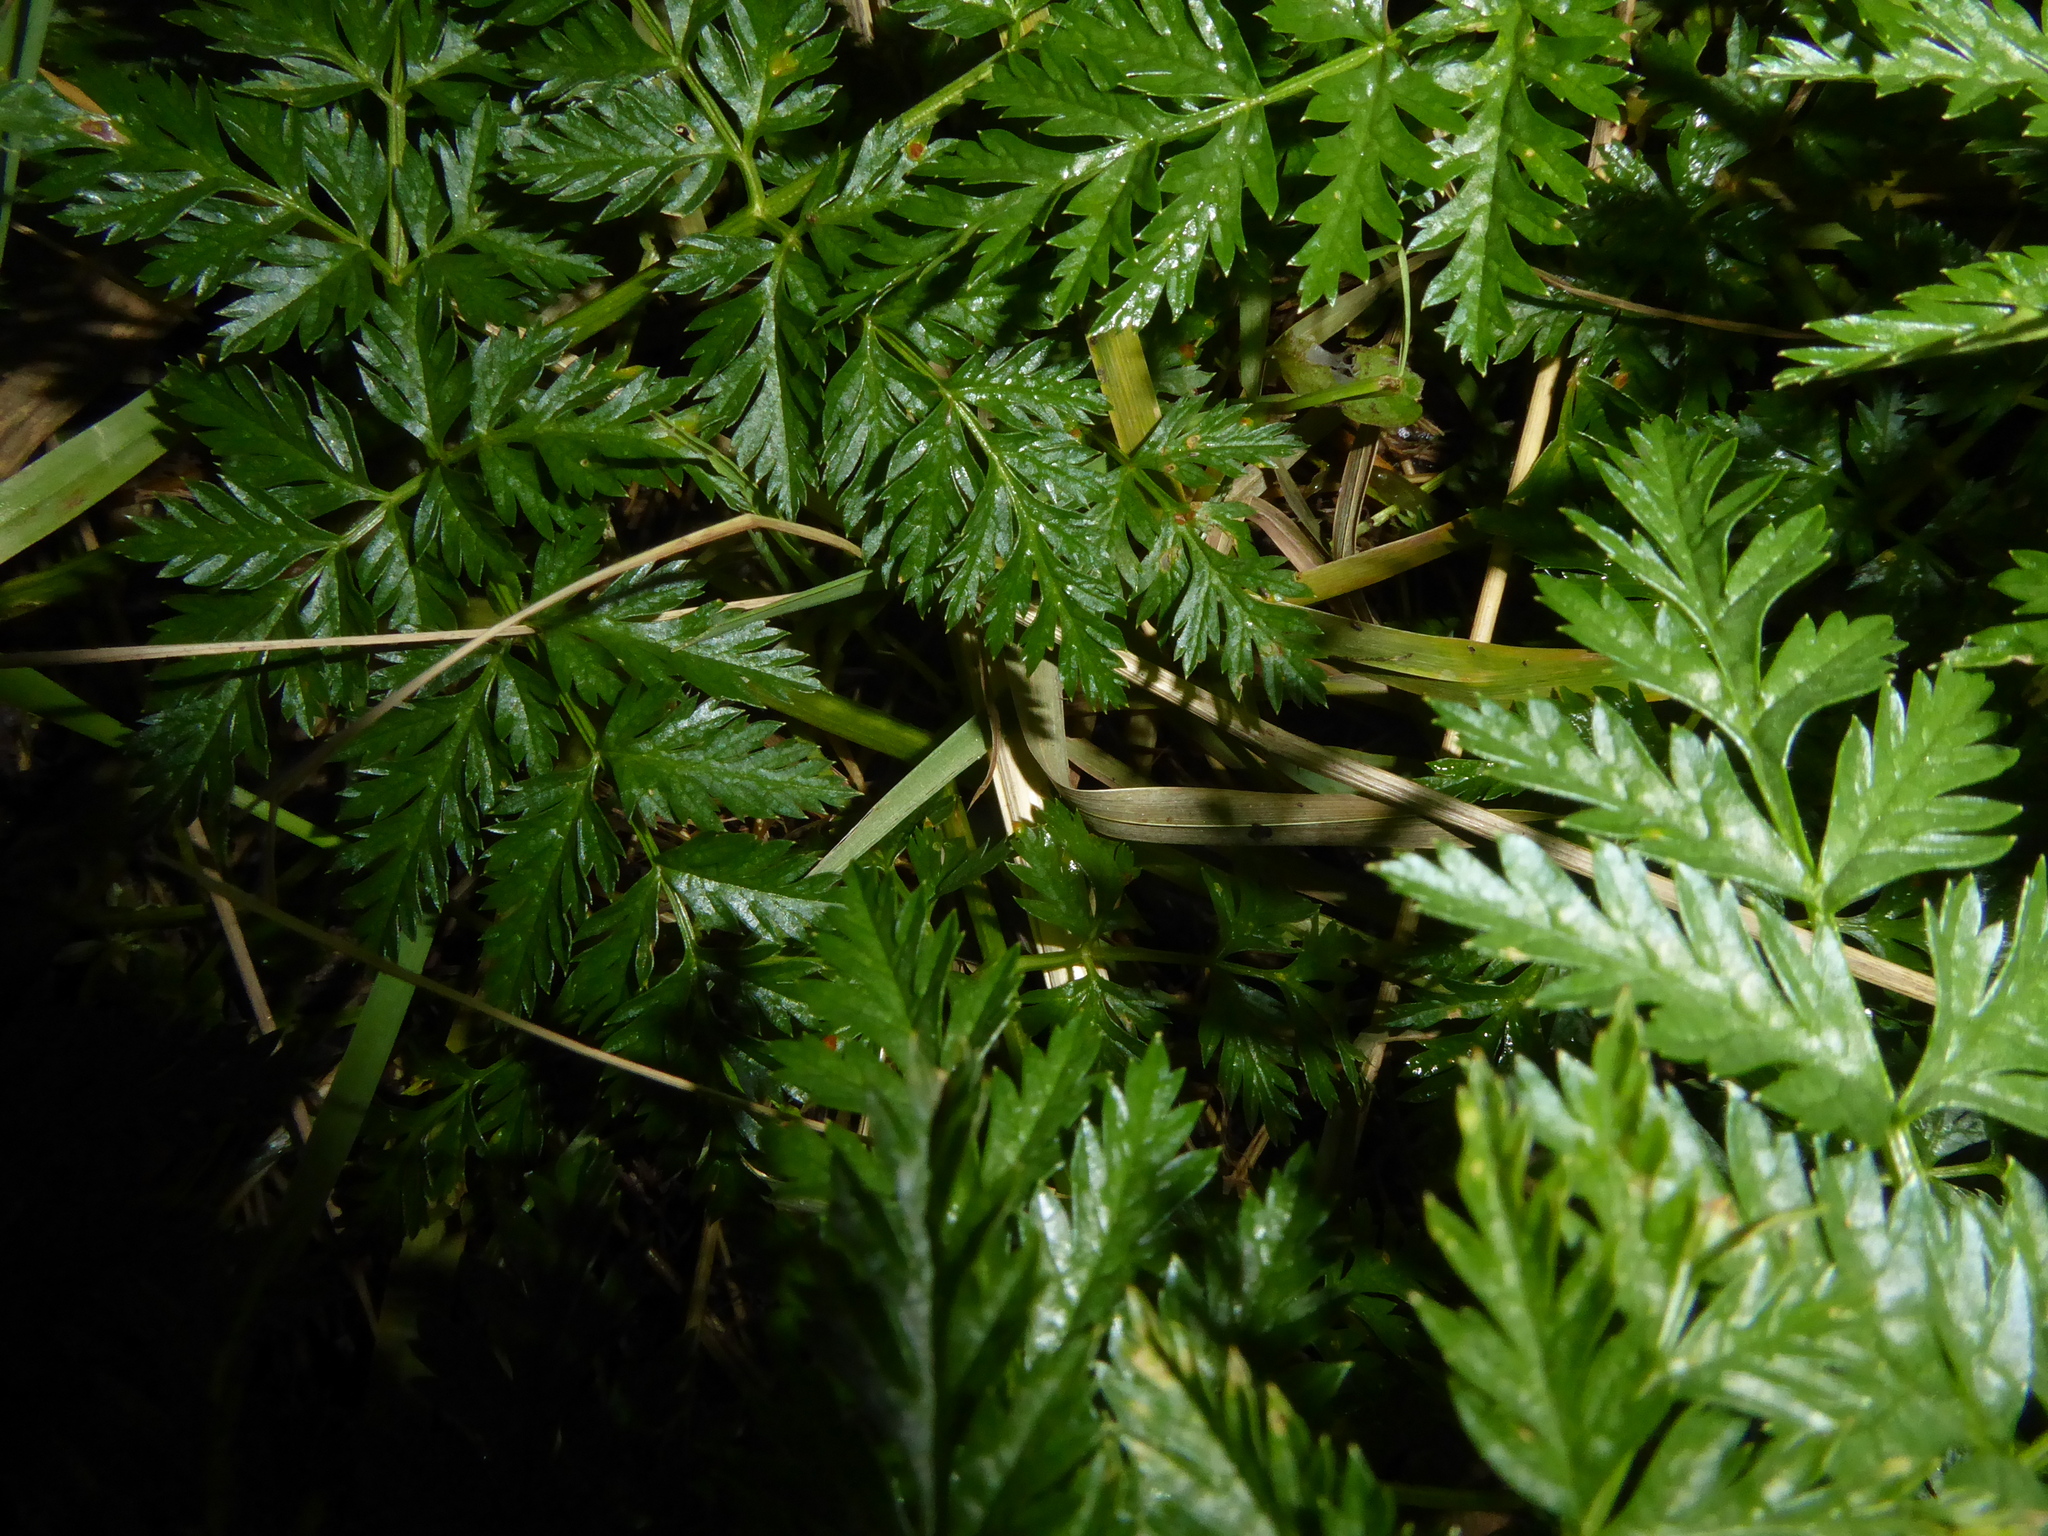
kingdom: Plantae
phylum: Tracheophyta
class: Magnoliopsida
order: Apiales
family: Apiaceae
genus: Conium
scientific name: Conium maculatum
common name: Hemlock
